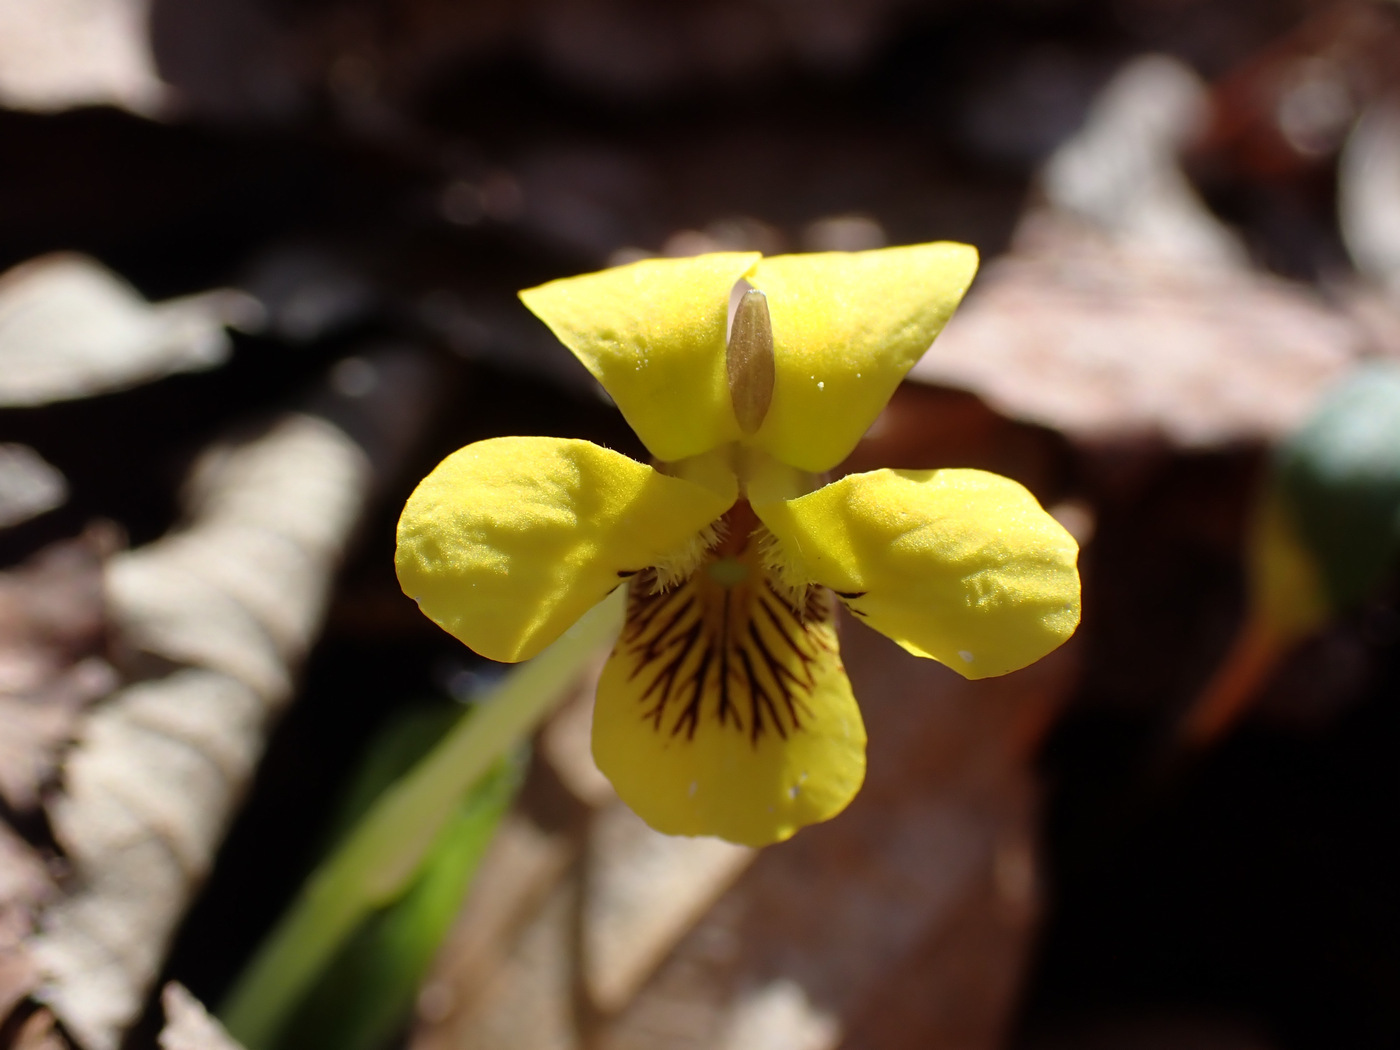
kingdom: Plantae
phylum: Tracheophyta
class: Magnoliopsida
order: Malpighiales
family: Violaceae
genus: Viola
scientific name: Viola rotundifolia
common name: Early yellow violet
